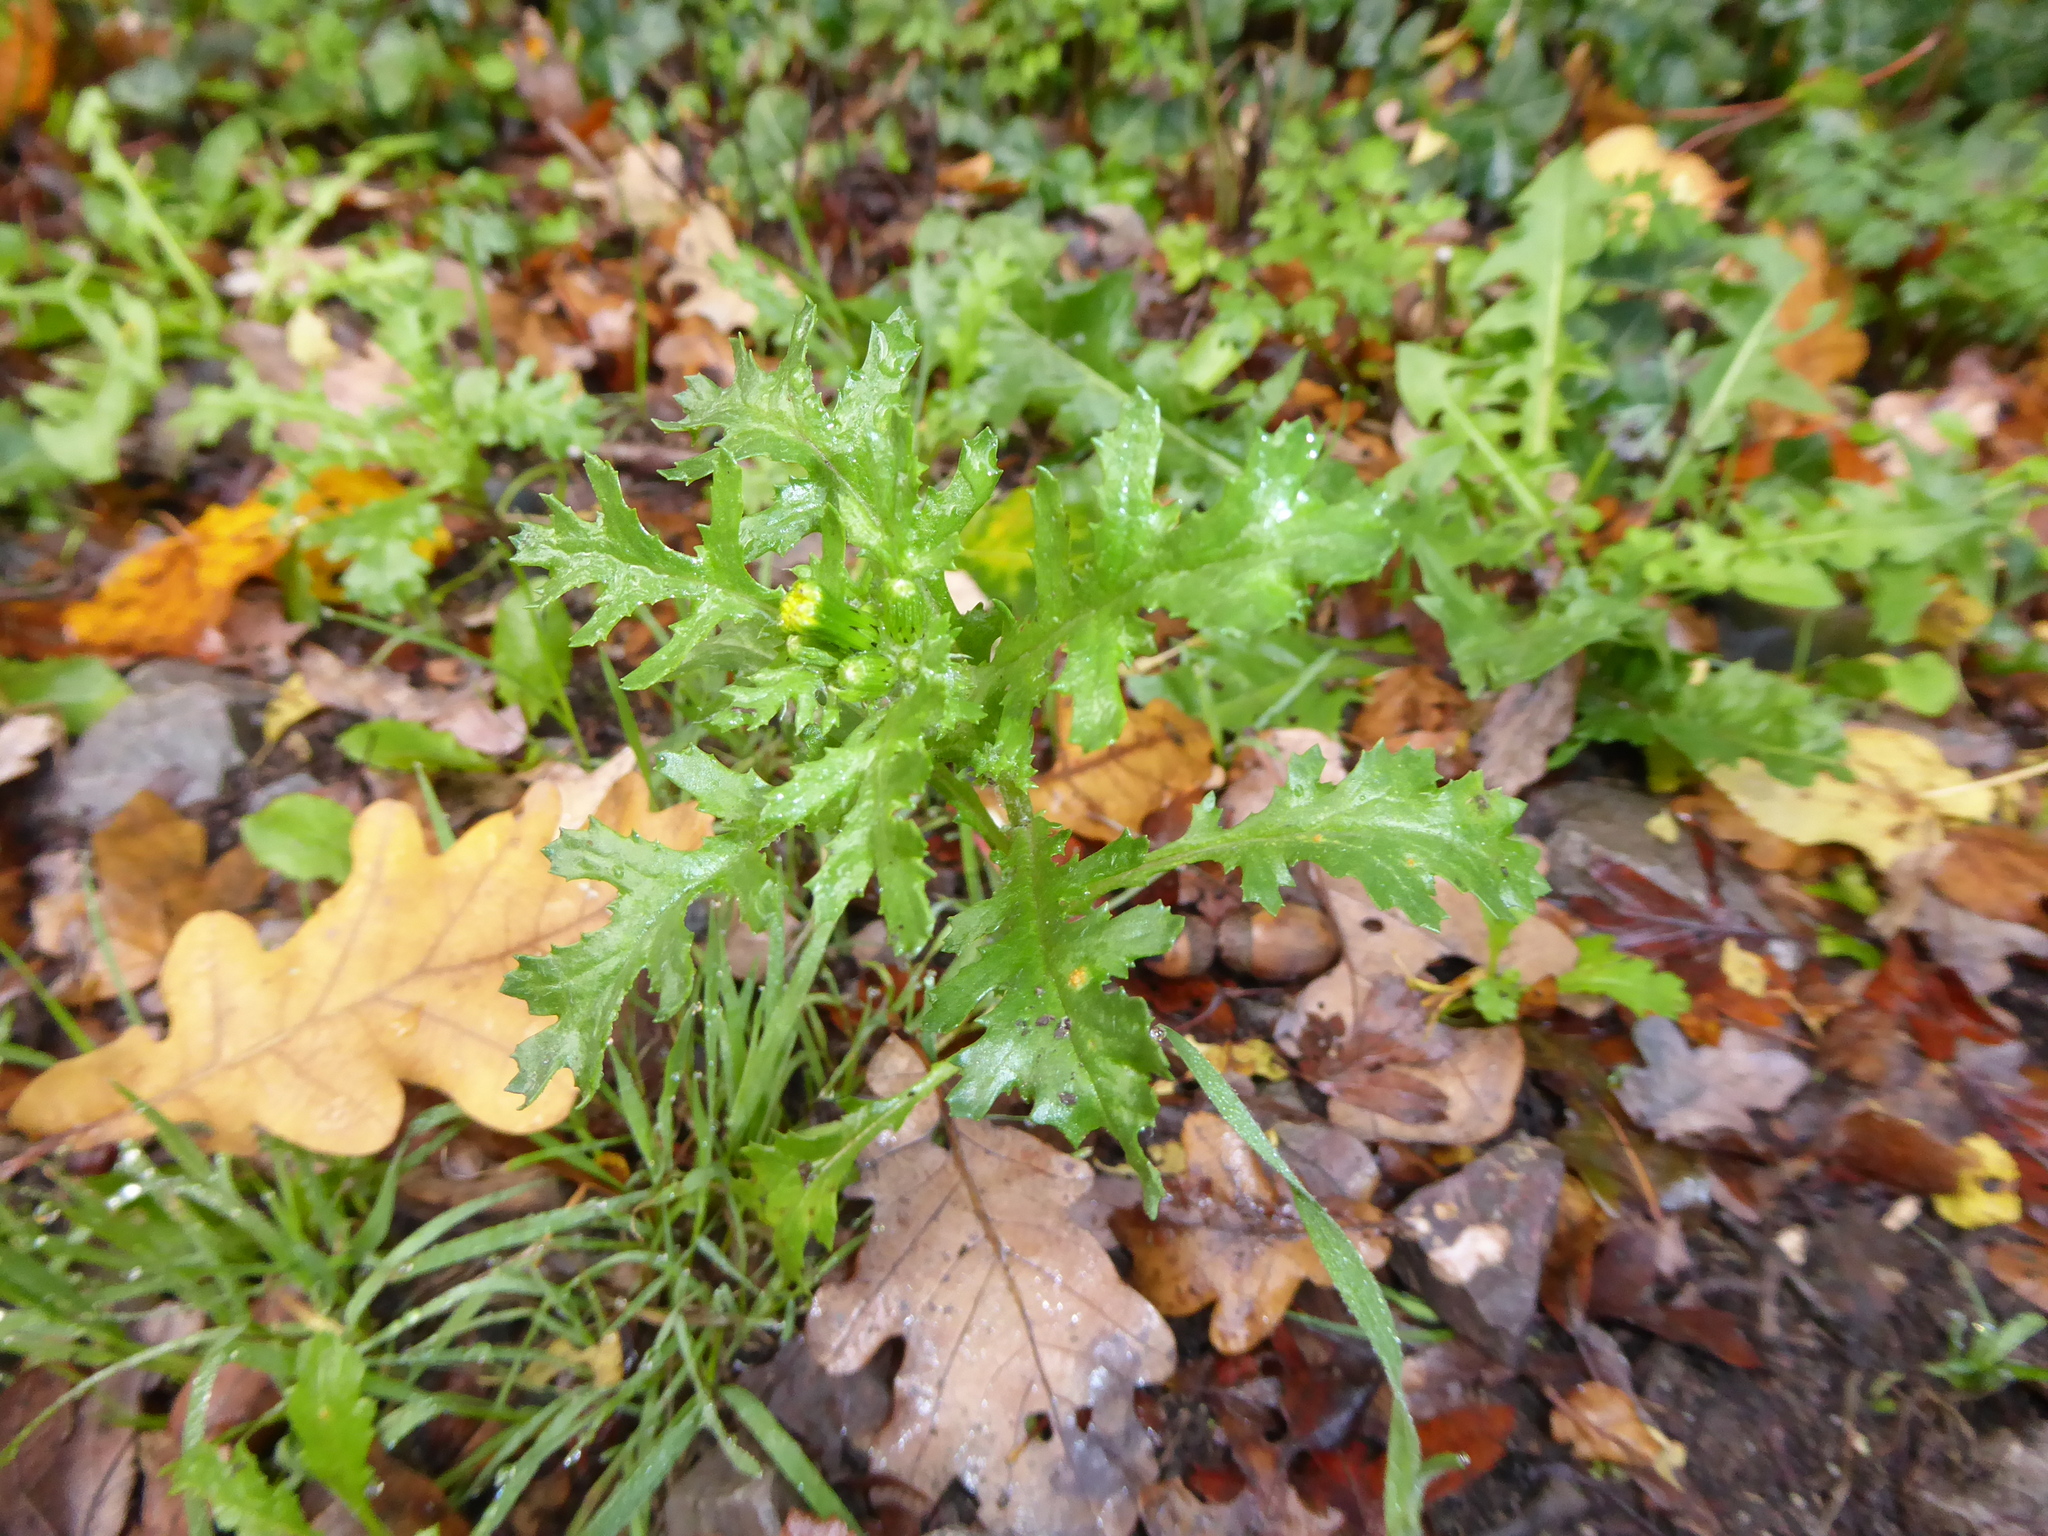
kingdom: Plantae
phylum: Tracheophyta
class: Magnoliopsida
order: Asterales
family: Asteraceae
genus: Senecio
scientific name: Senecio vulgaris
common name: Old-man-in-the-spring
